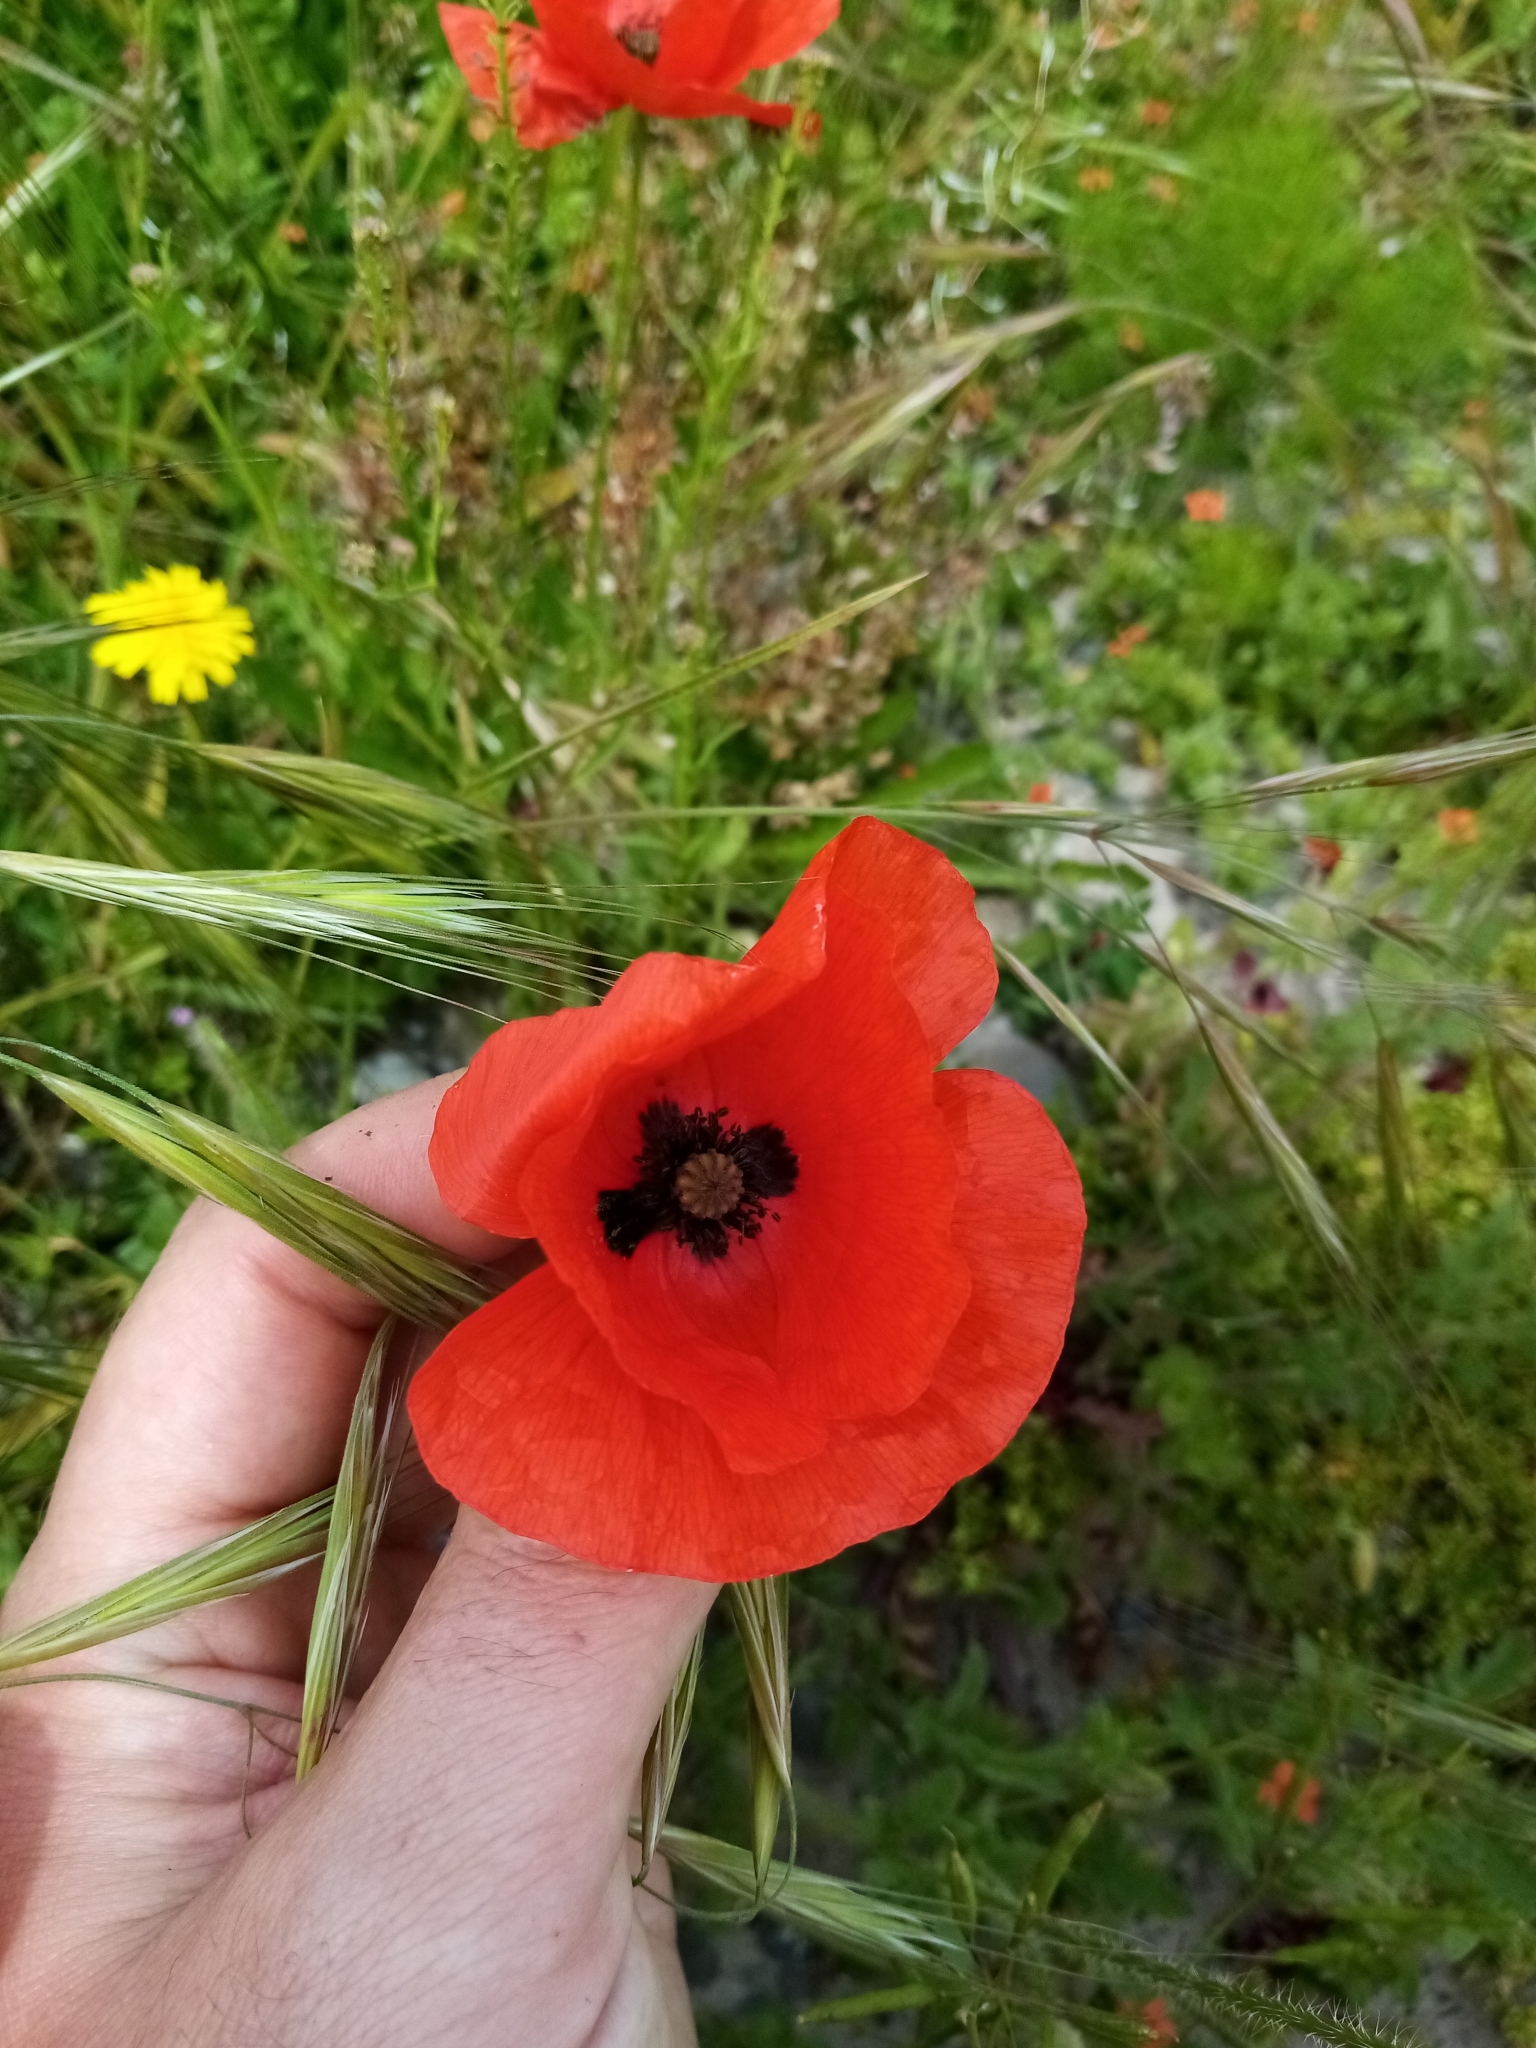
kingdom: Plantae
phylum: Tracheophyta
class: Magnoliopsida
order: Ranunculales
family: Papaveraceae
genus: Papaver
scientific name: Papaver rhoeas
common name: Corn poppy
